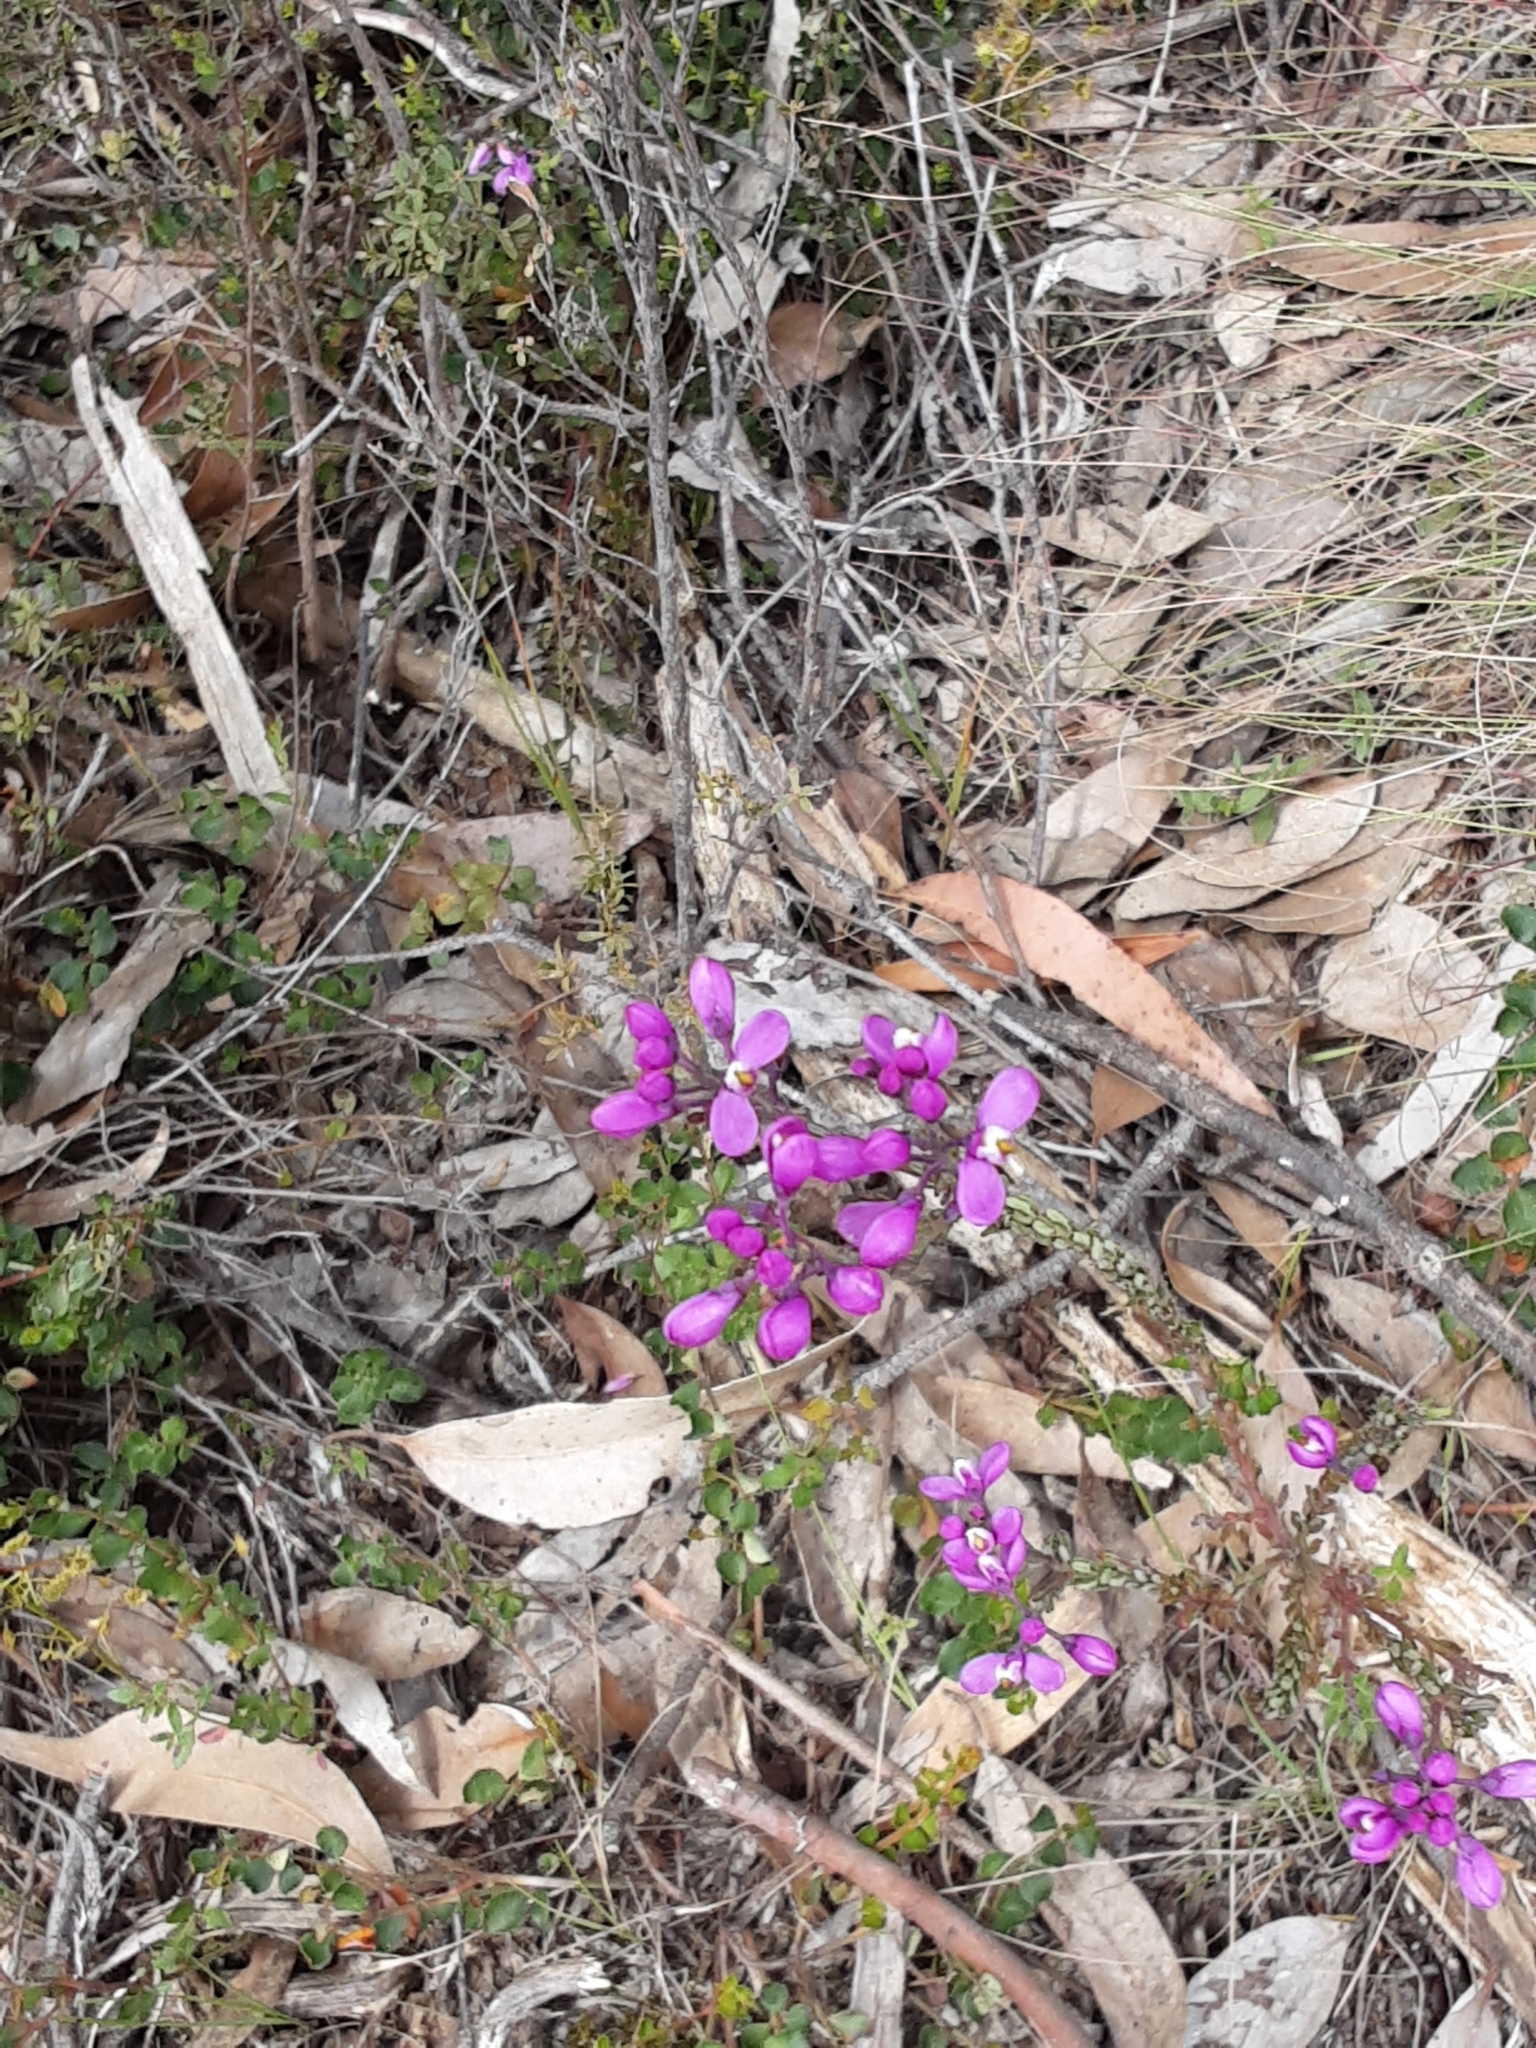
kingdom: Plantae
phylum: Tracheophyta
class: Magnoliopsida
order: Fabales
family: Polygalaceae
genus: Comesperma
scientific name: Comesperma ericinum
